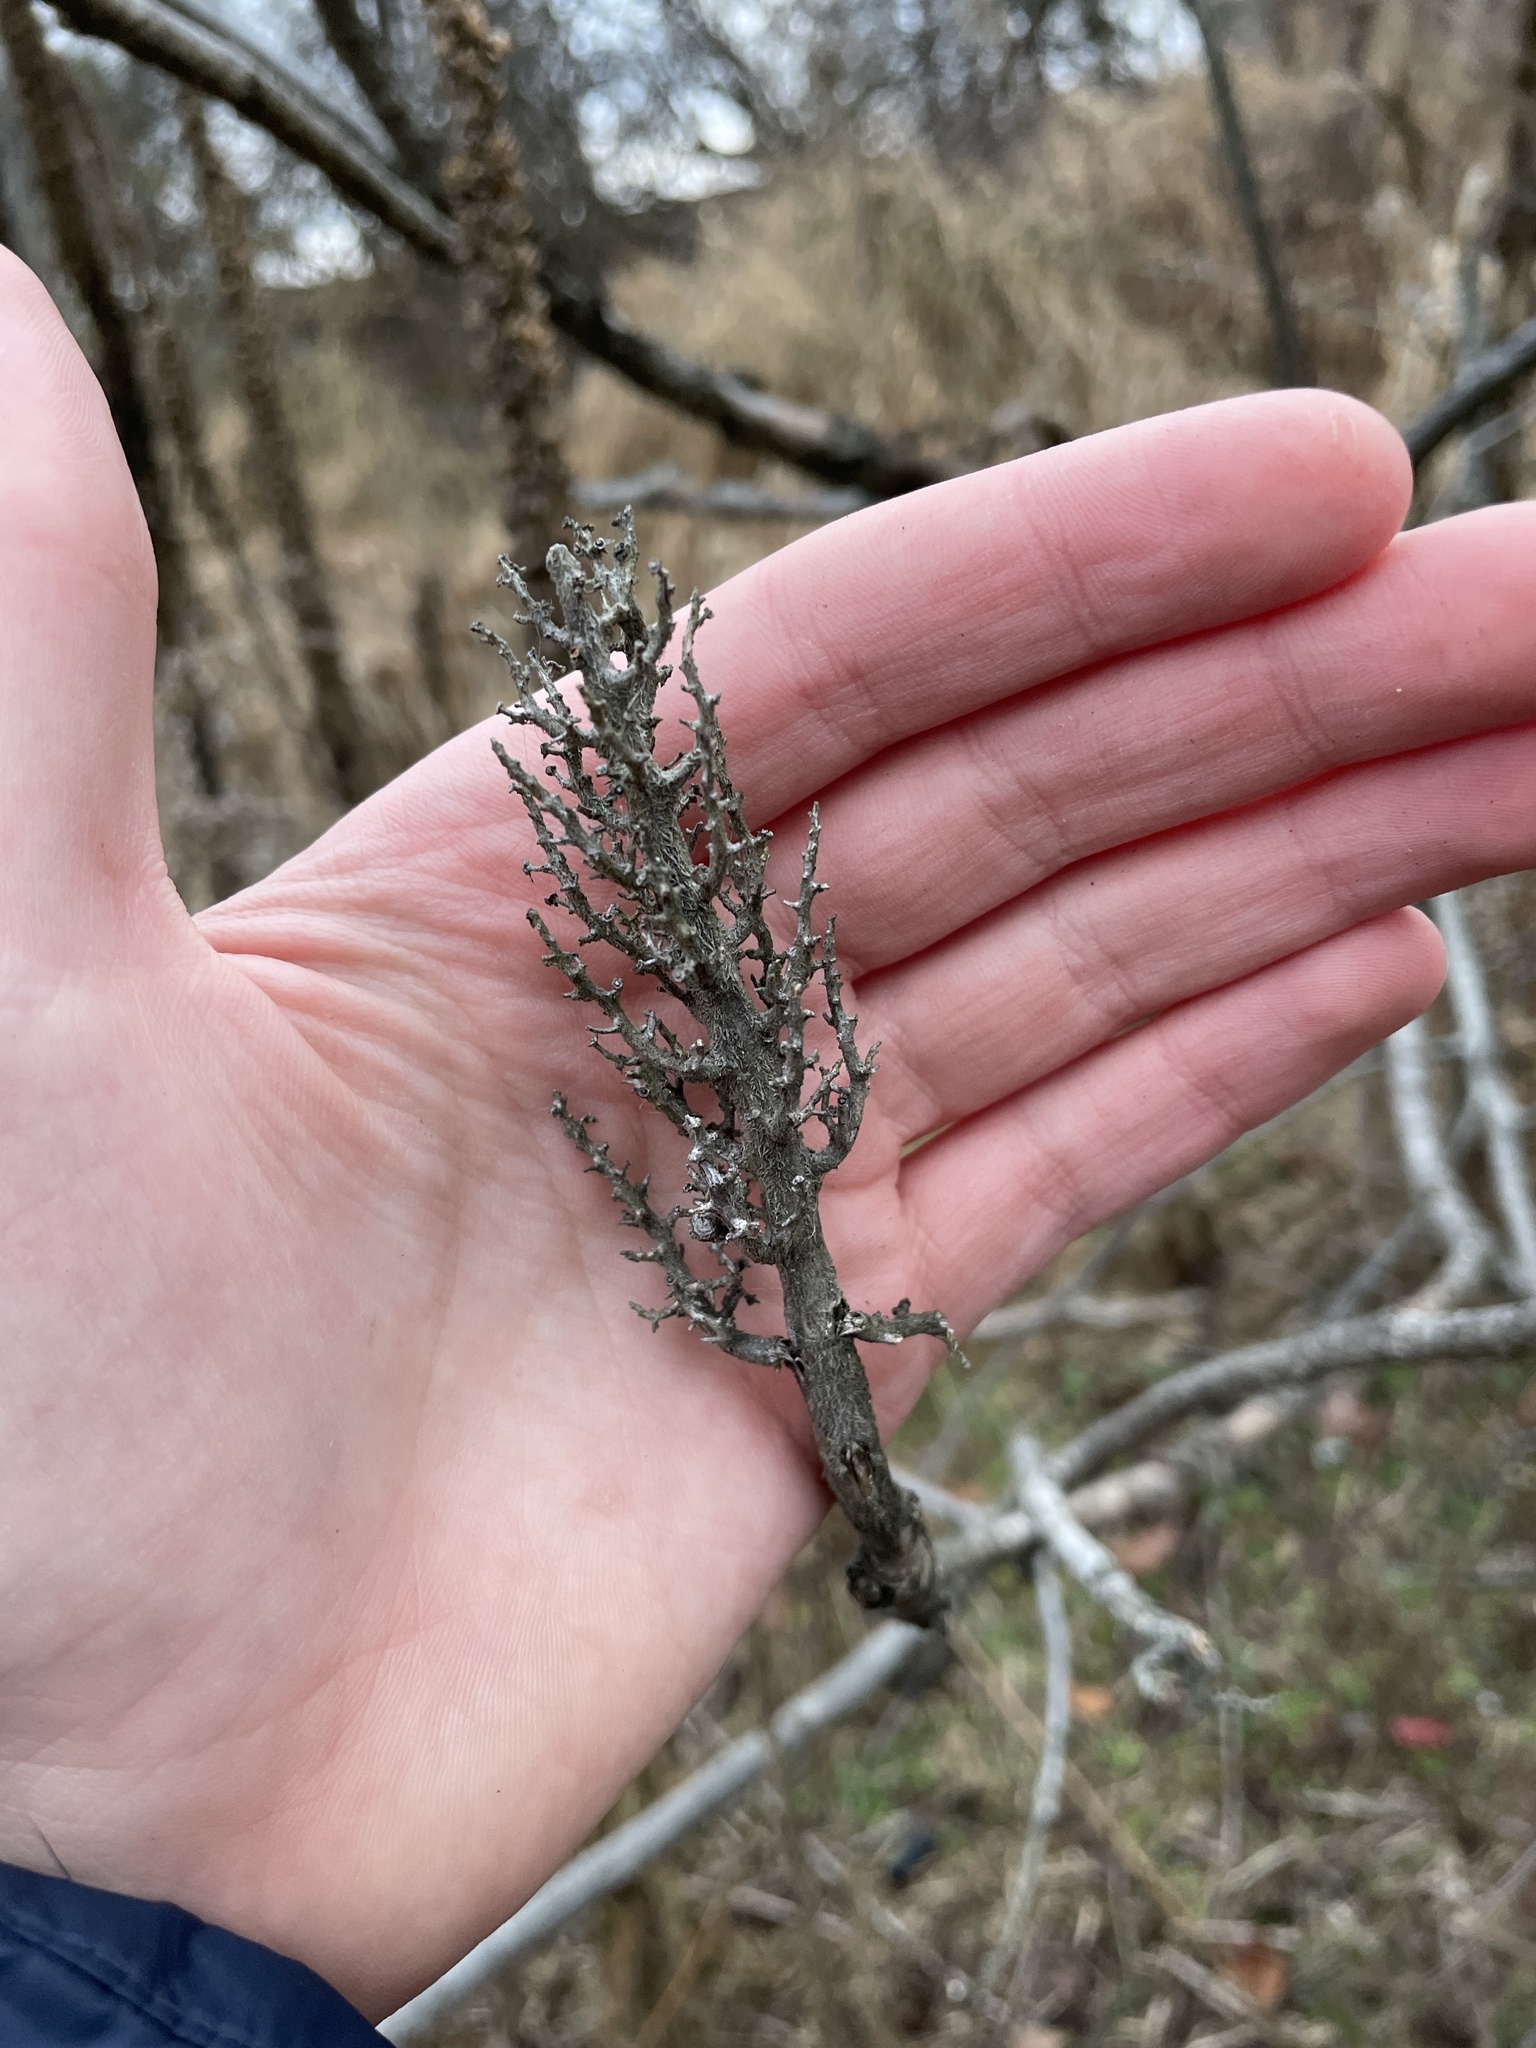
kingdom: Plantae
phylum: Tracheophyta
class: Magnoliopsida
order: Sapindales
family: Anacardiaceae
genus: Rhus
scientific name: Rhus typhina
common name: Staghorn sumac
